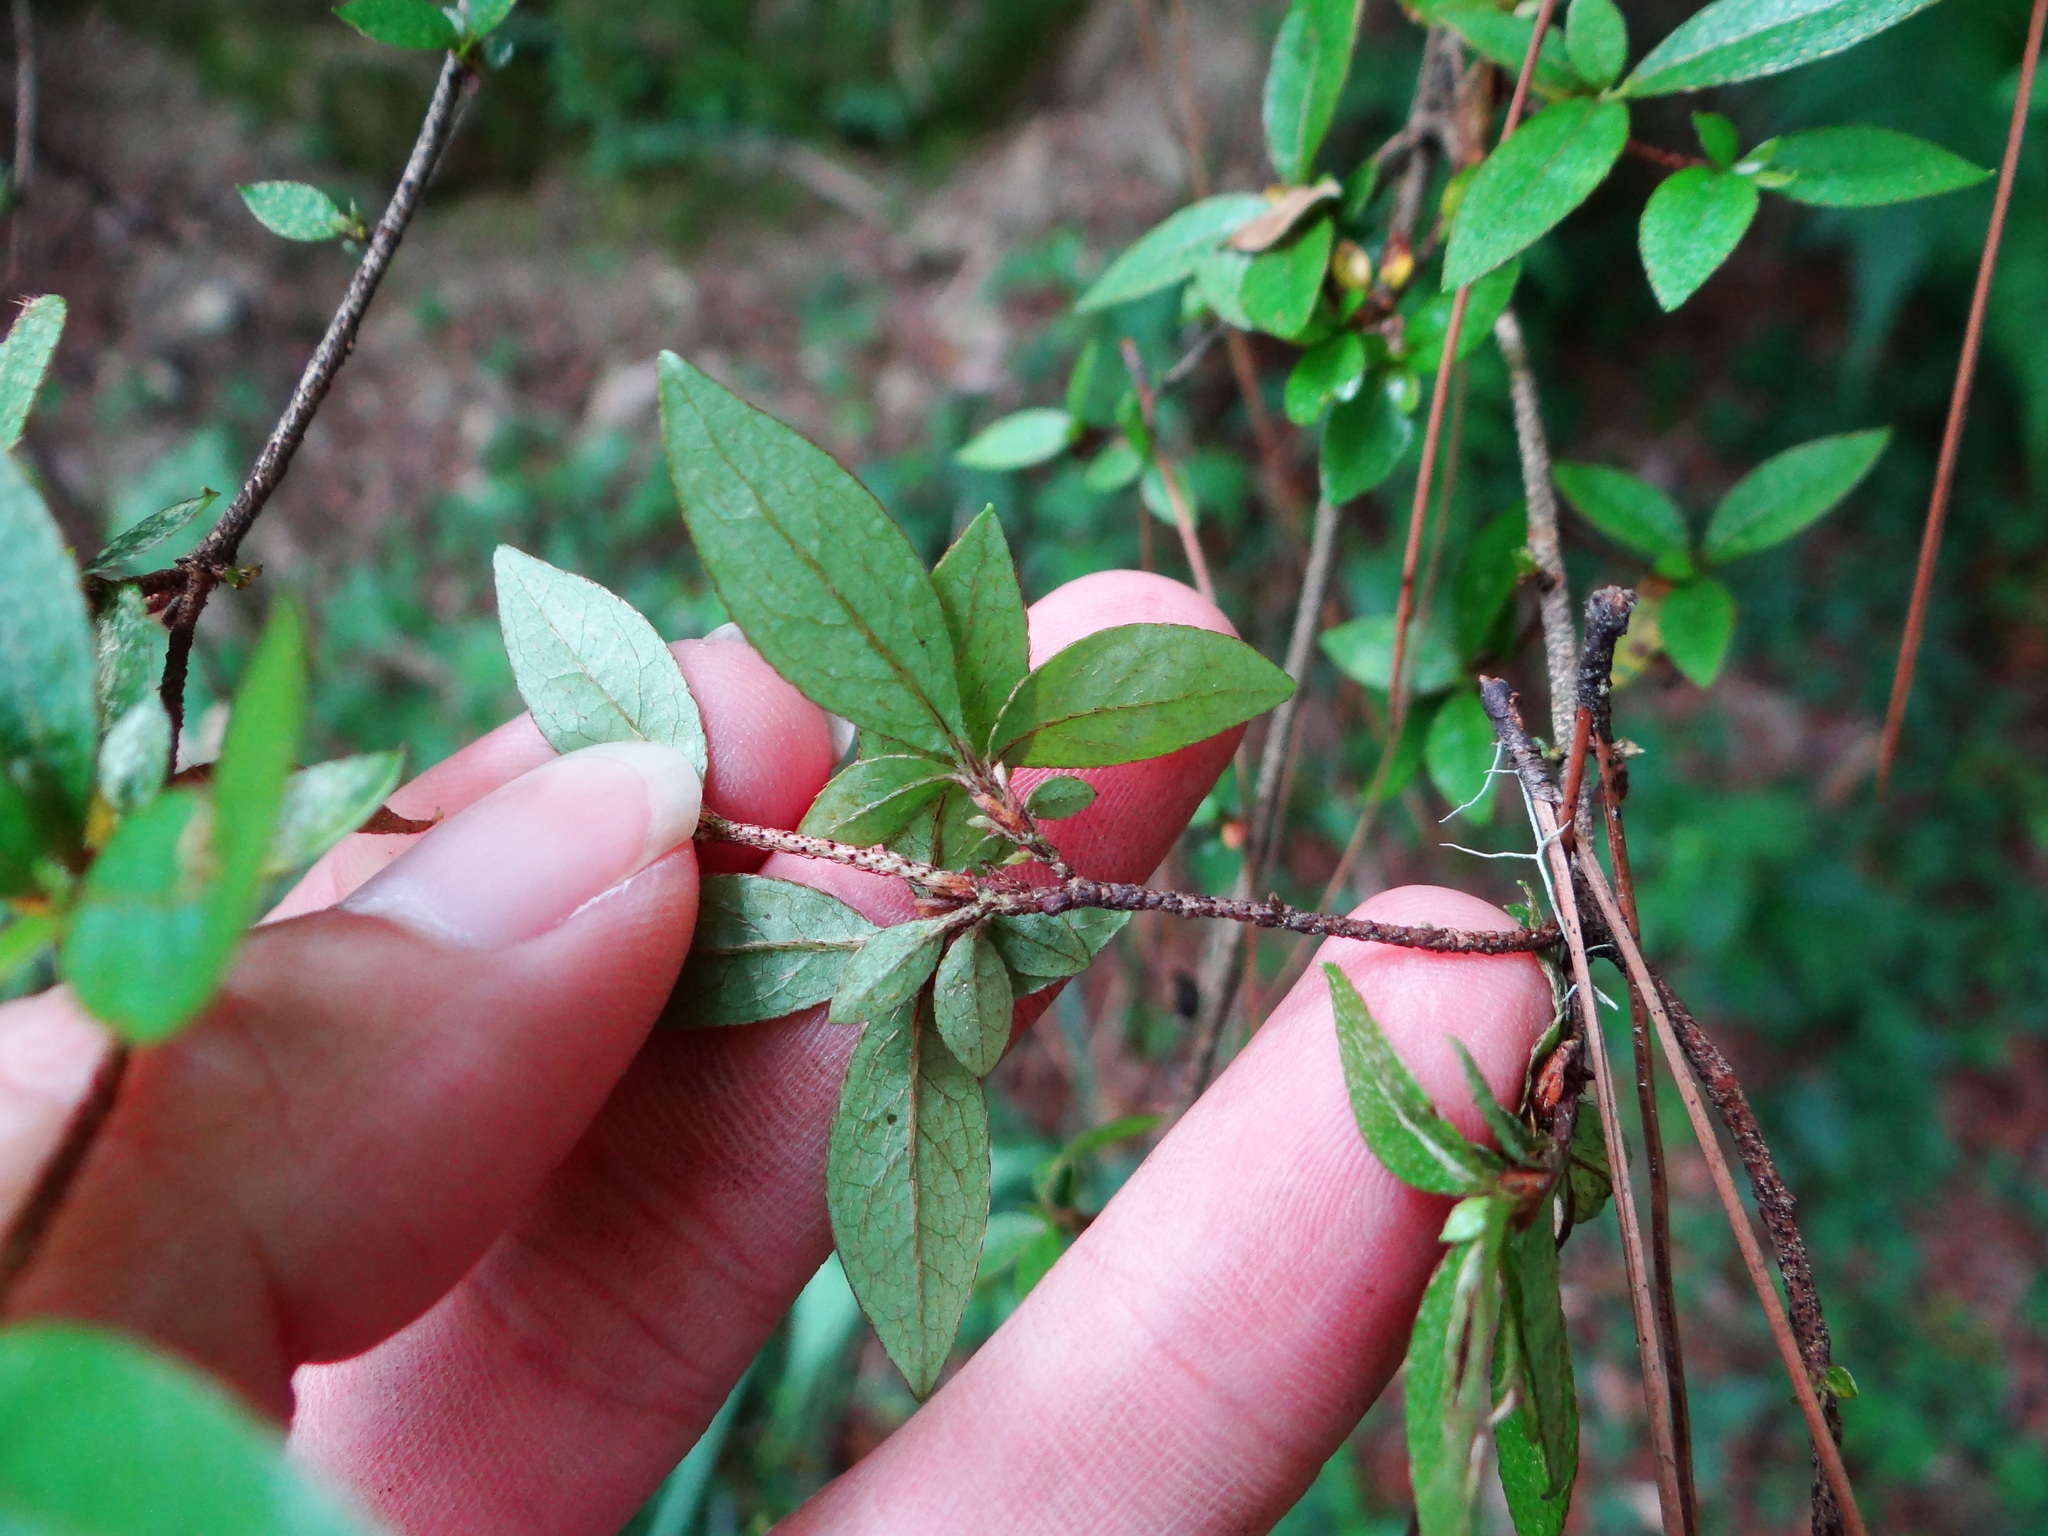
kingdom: Plantae
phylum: Tracheophyta
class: Magnoliopsida
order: Ericales
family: Ericaceae
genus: Rhododendron
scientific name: Rhododendron breviperulatum
